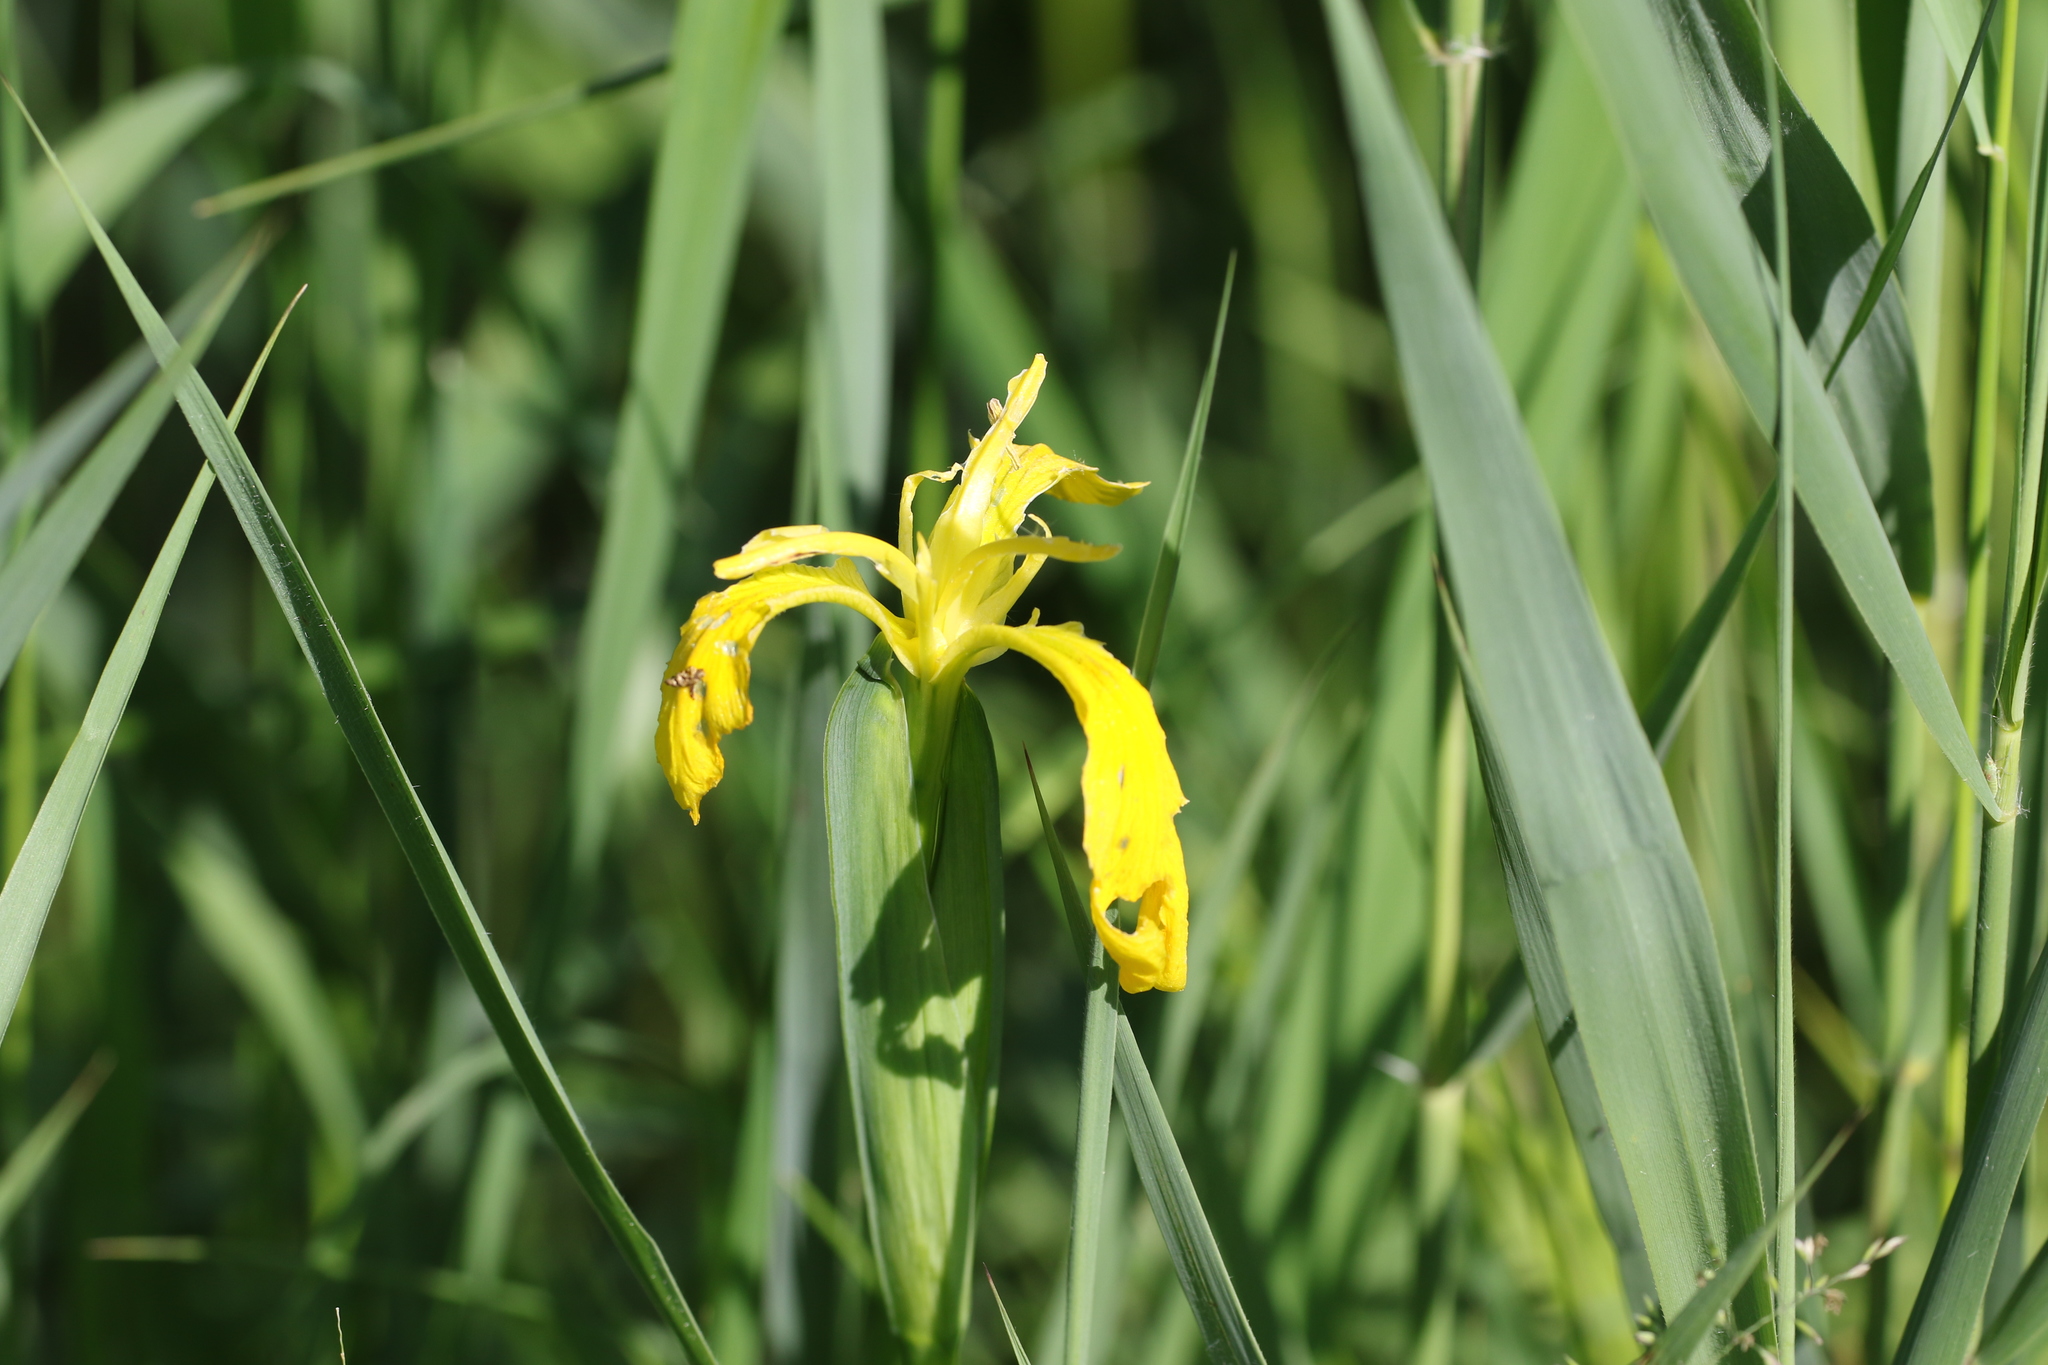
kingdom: Plantae
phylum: Tracheophyta
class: Liliopsida
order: Asparagales
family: Iridaceae
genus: Iris
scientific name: Iris pseudacorus
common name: Yellow flag
